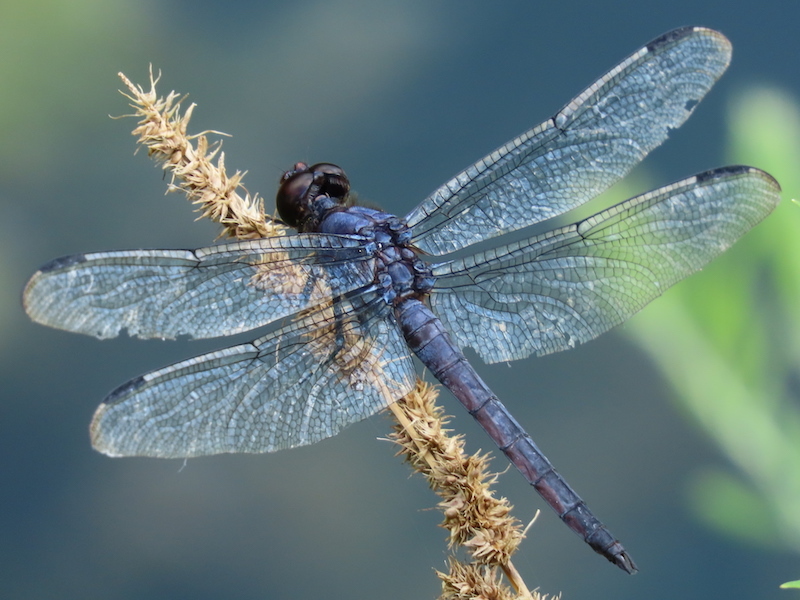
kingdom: Animalia
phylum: Arthropoda
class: Insecta
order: Odonata
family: Libellulidae
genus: Libellula
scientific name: Libellula incesta
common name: Slaty skimmer
